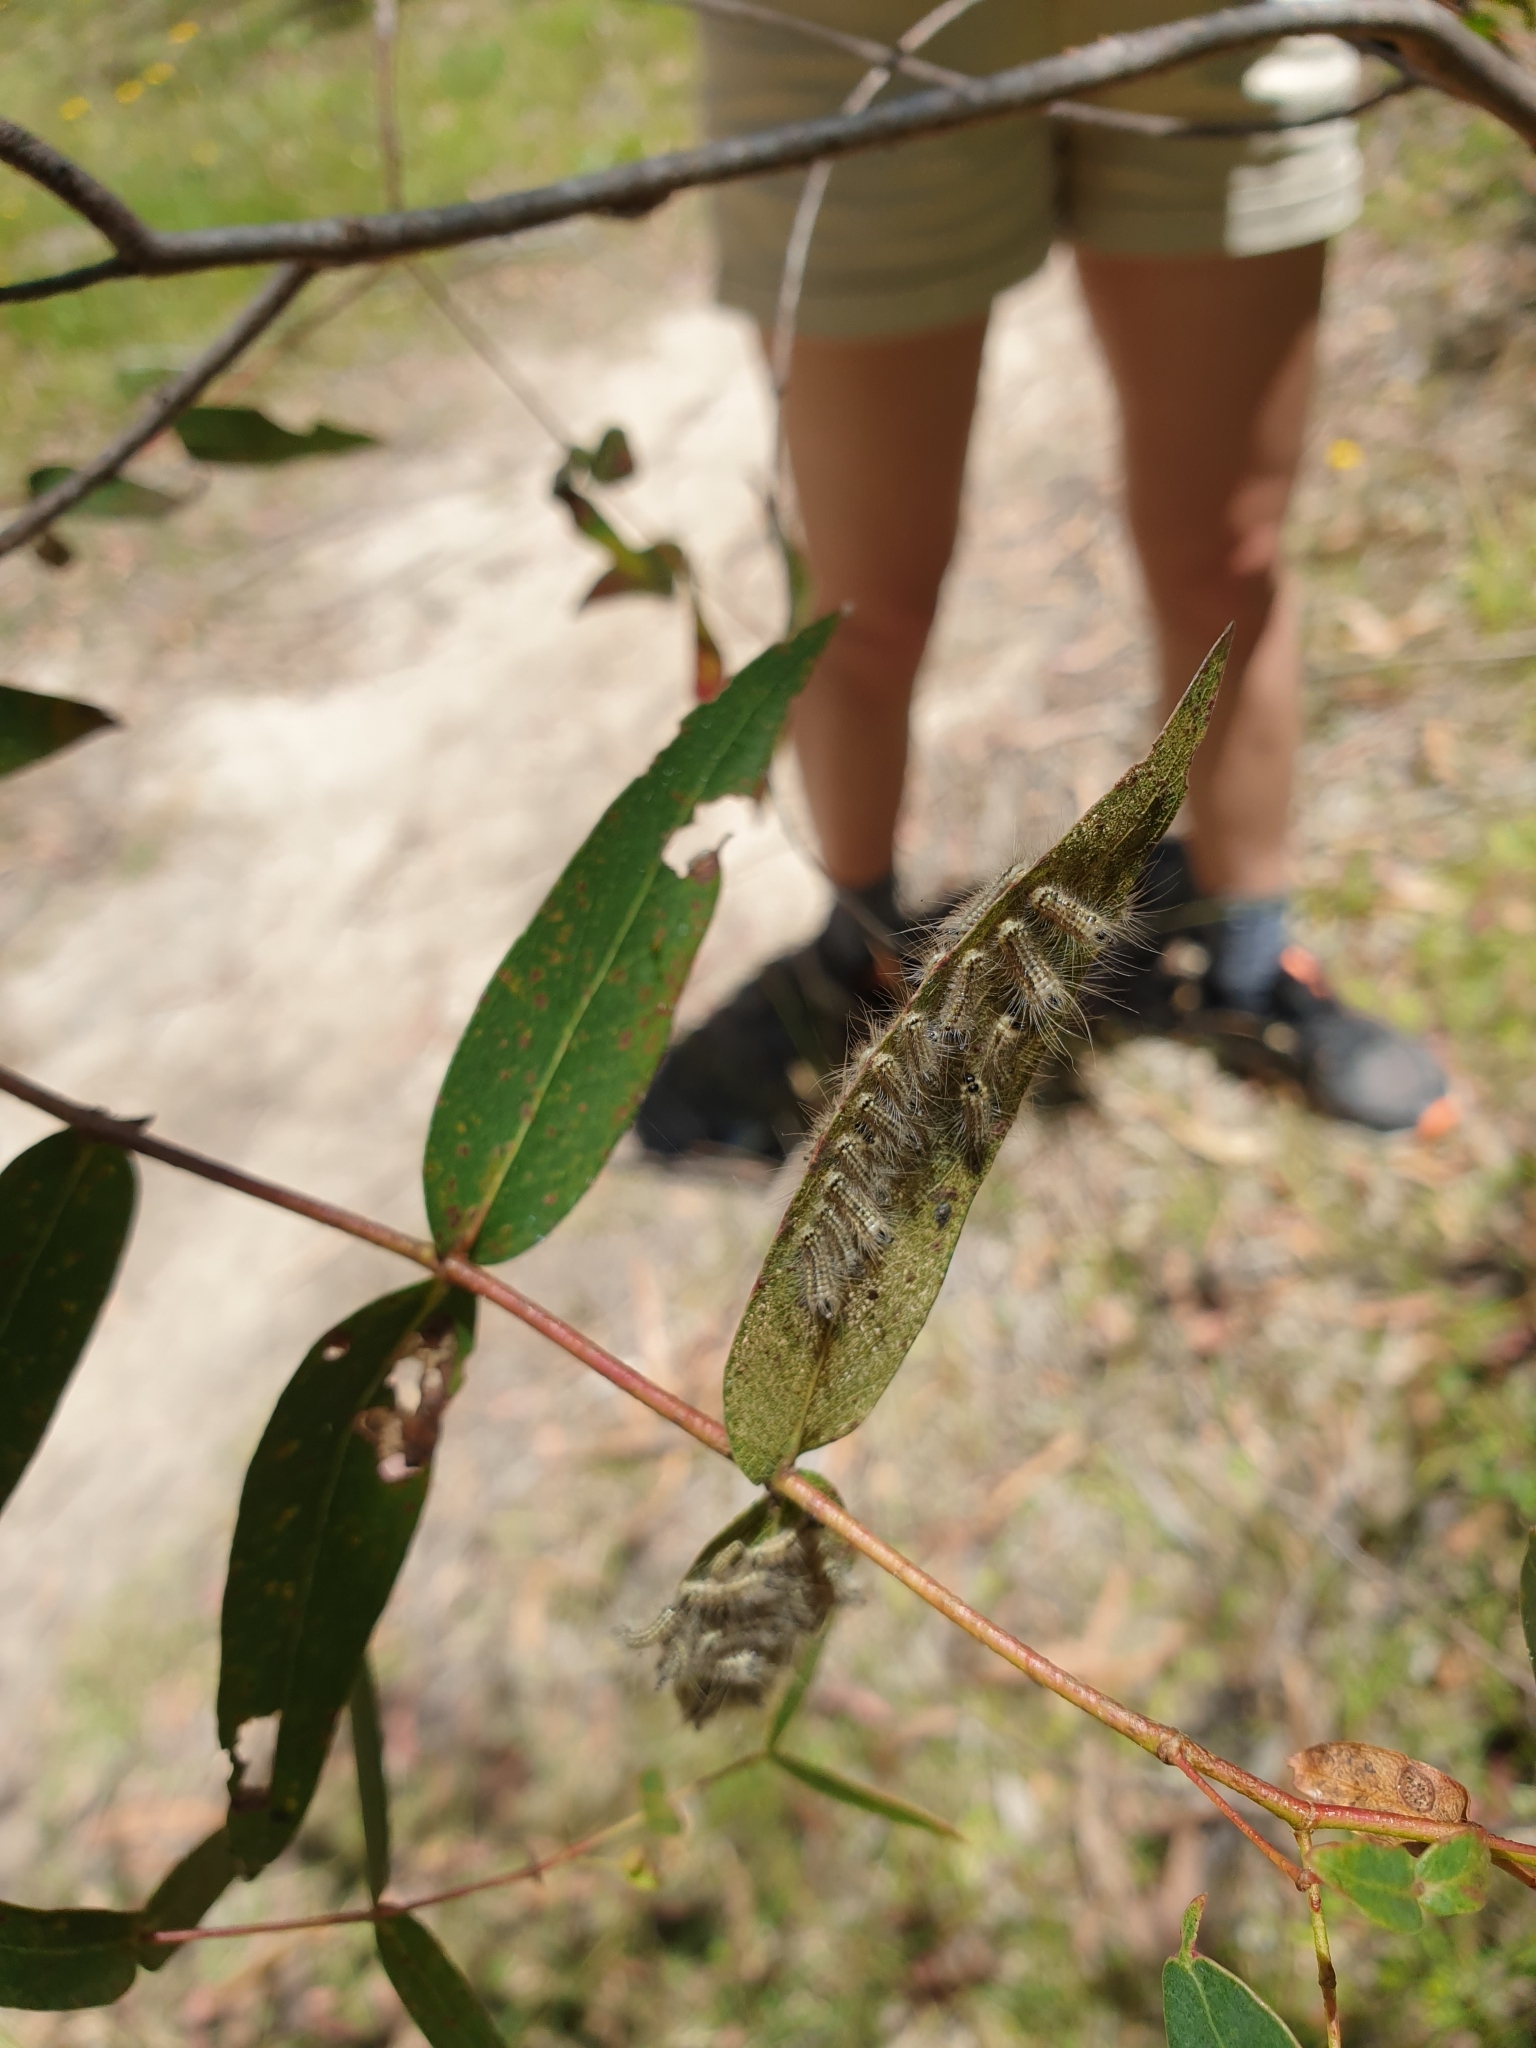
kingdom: Animalia
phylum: Arthropoda
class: Insecta
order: Lepidoptera
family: Nolidae
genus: Uraba
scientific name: Uraba lugens
